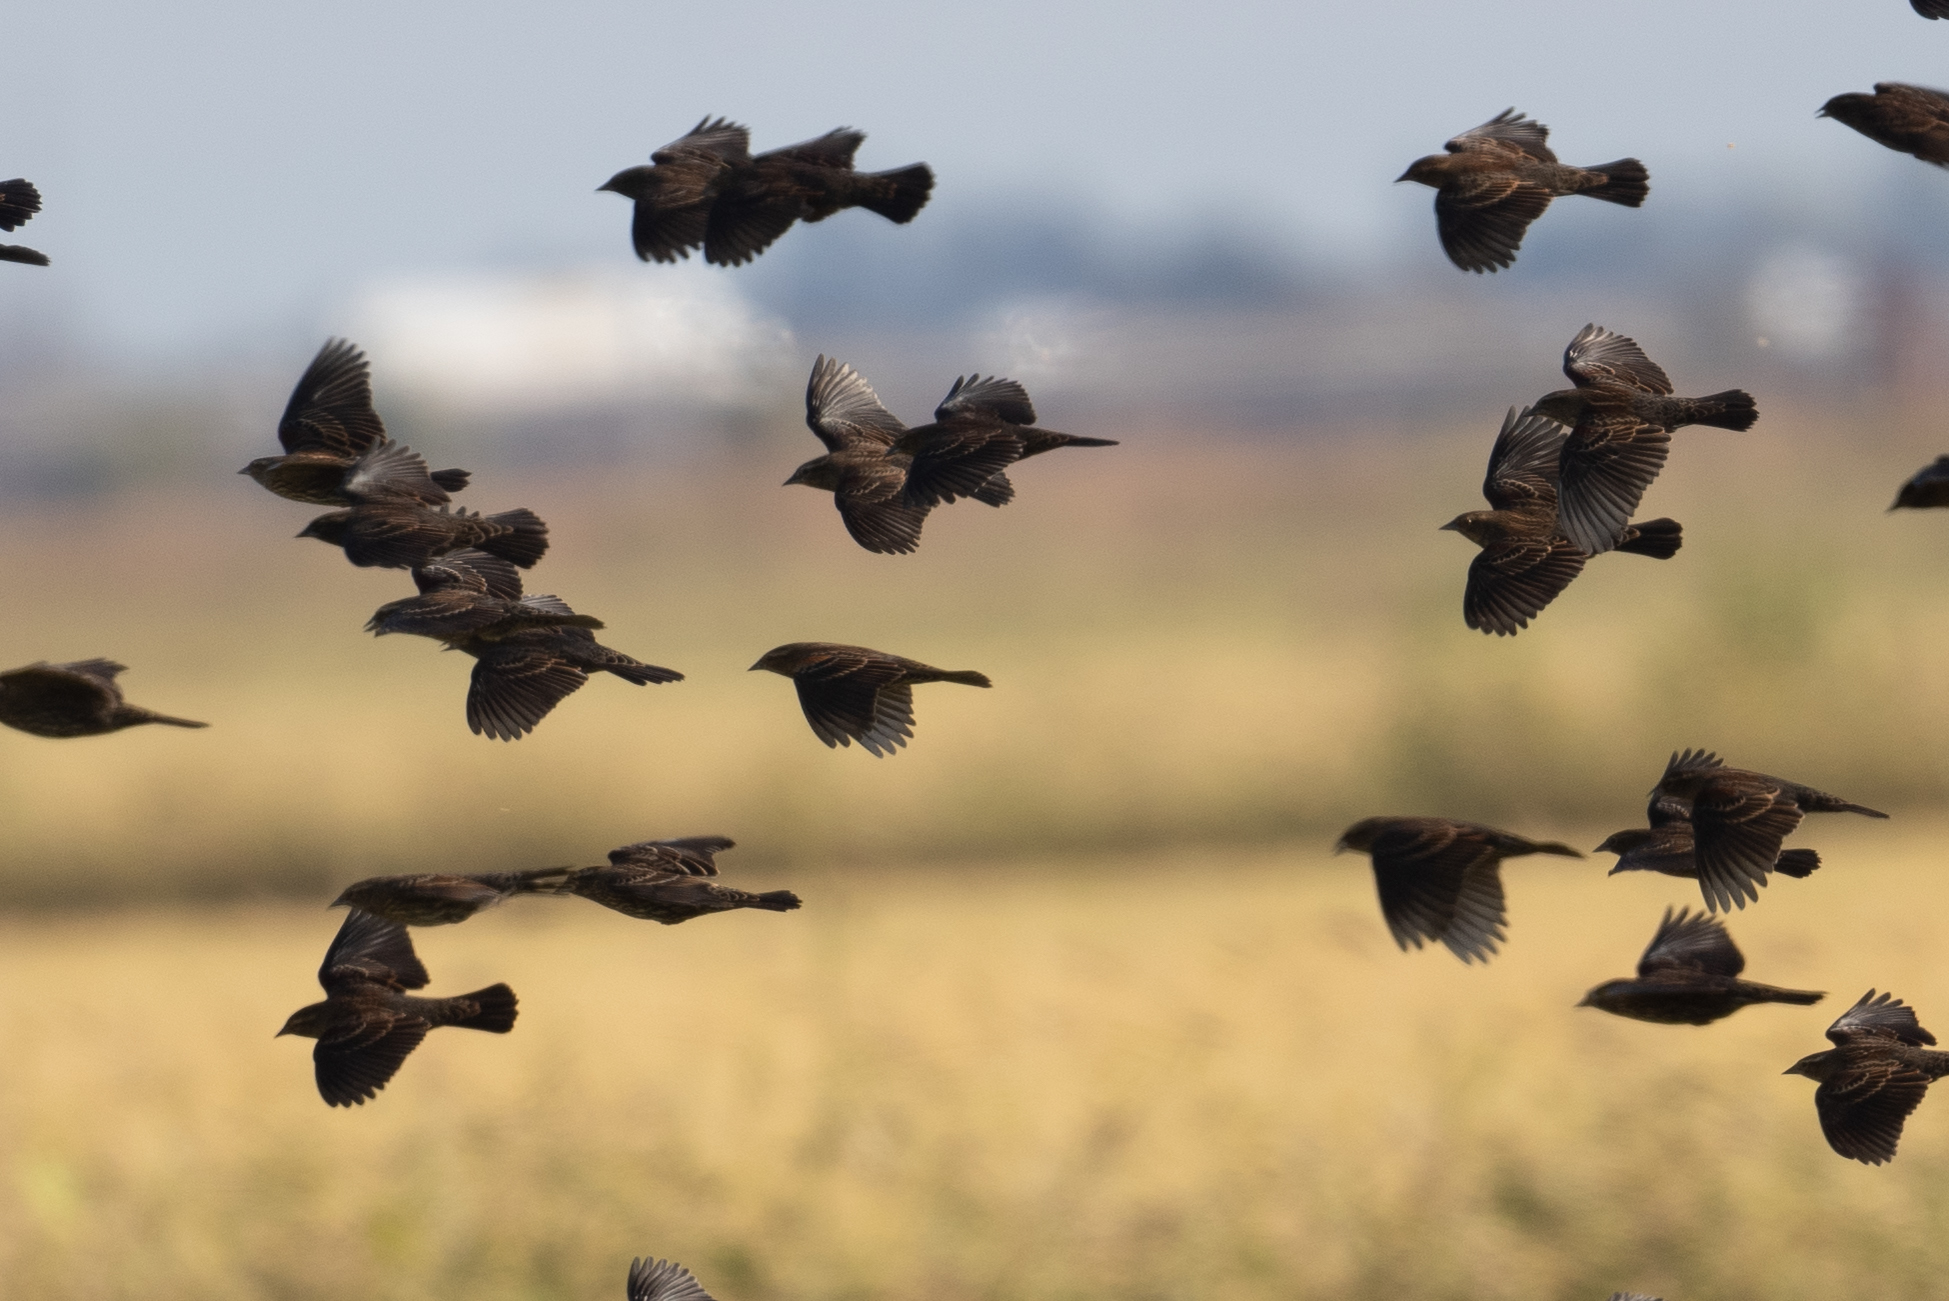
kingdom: Animalia
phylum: Chordata
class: Aves
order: Passeriformes
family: Icteridae
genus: Agelaius
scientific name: Agelaius phoeniceus
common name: Red-winged blackbird
